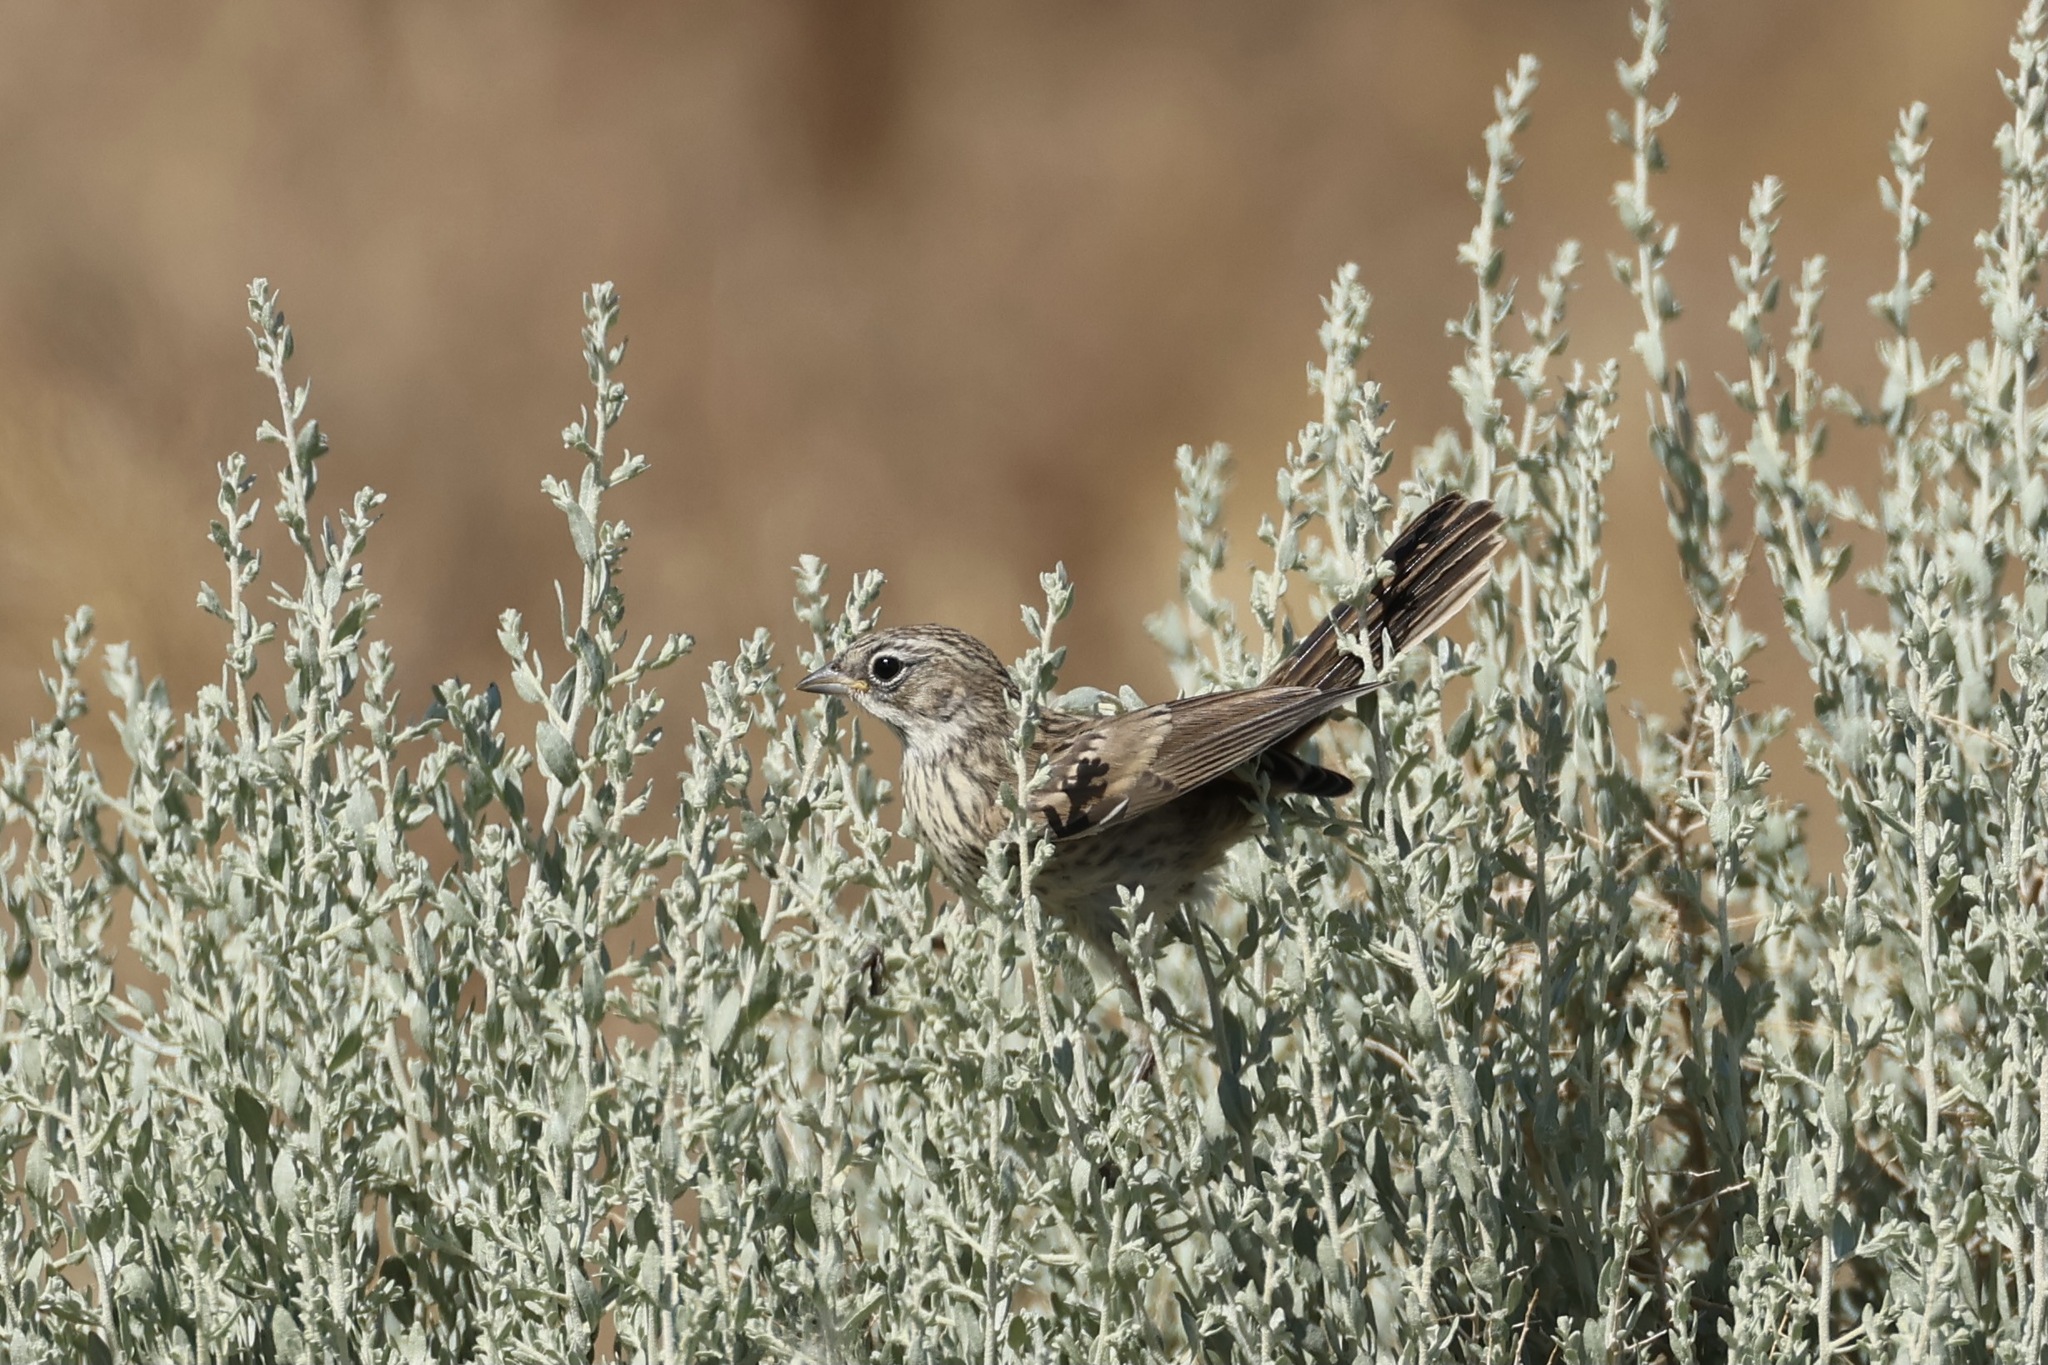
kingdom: Animalia
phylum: Chordata
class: Aves
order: Passeriformes
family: Passerellidae
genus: Artemisiospiza
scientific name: Artemisiospiza belli
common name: Bell's sparrow
